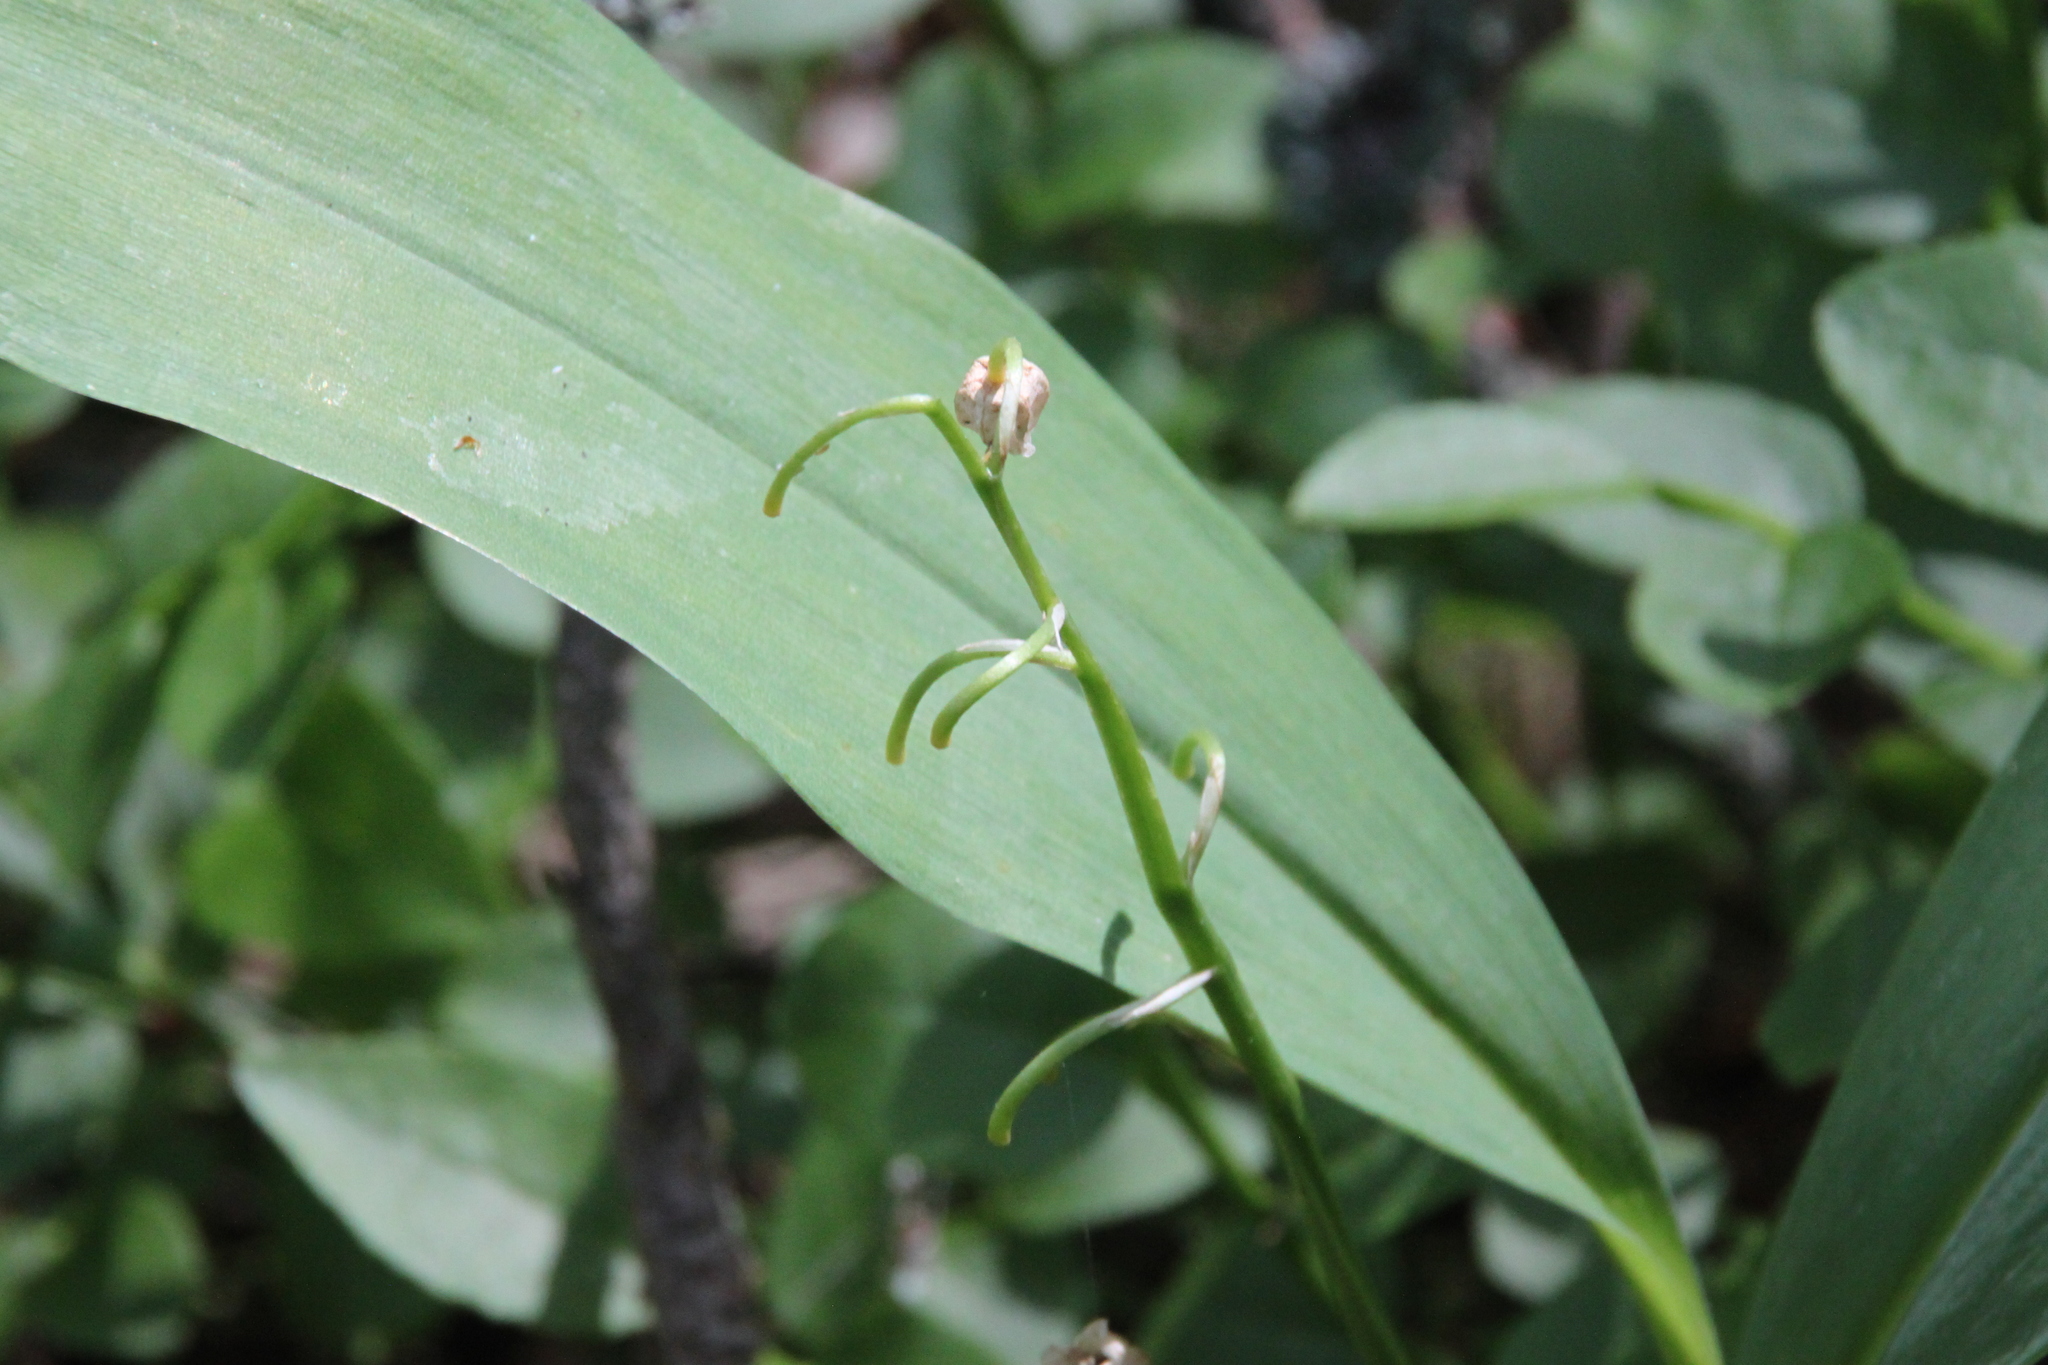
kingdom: Plantae
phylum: Tracheophyta
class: Liliopsida
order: Asparagales
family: Asparagaceae
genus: Convallaria
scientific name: Convallaria majalis
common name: Lily-of-the-valley
